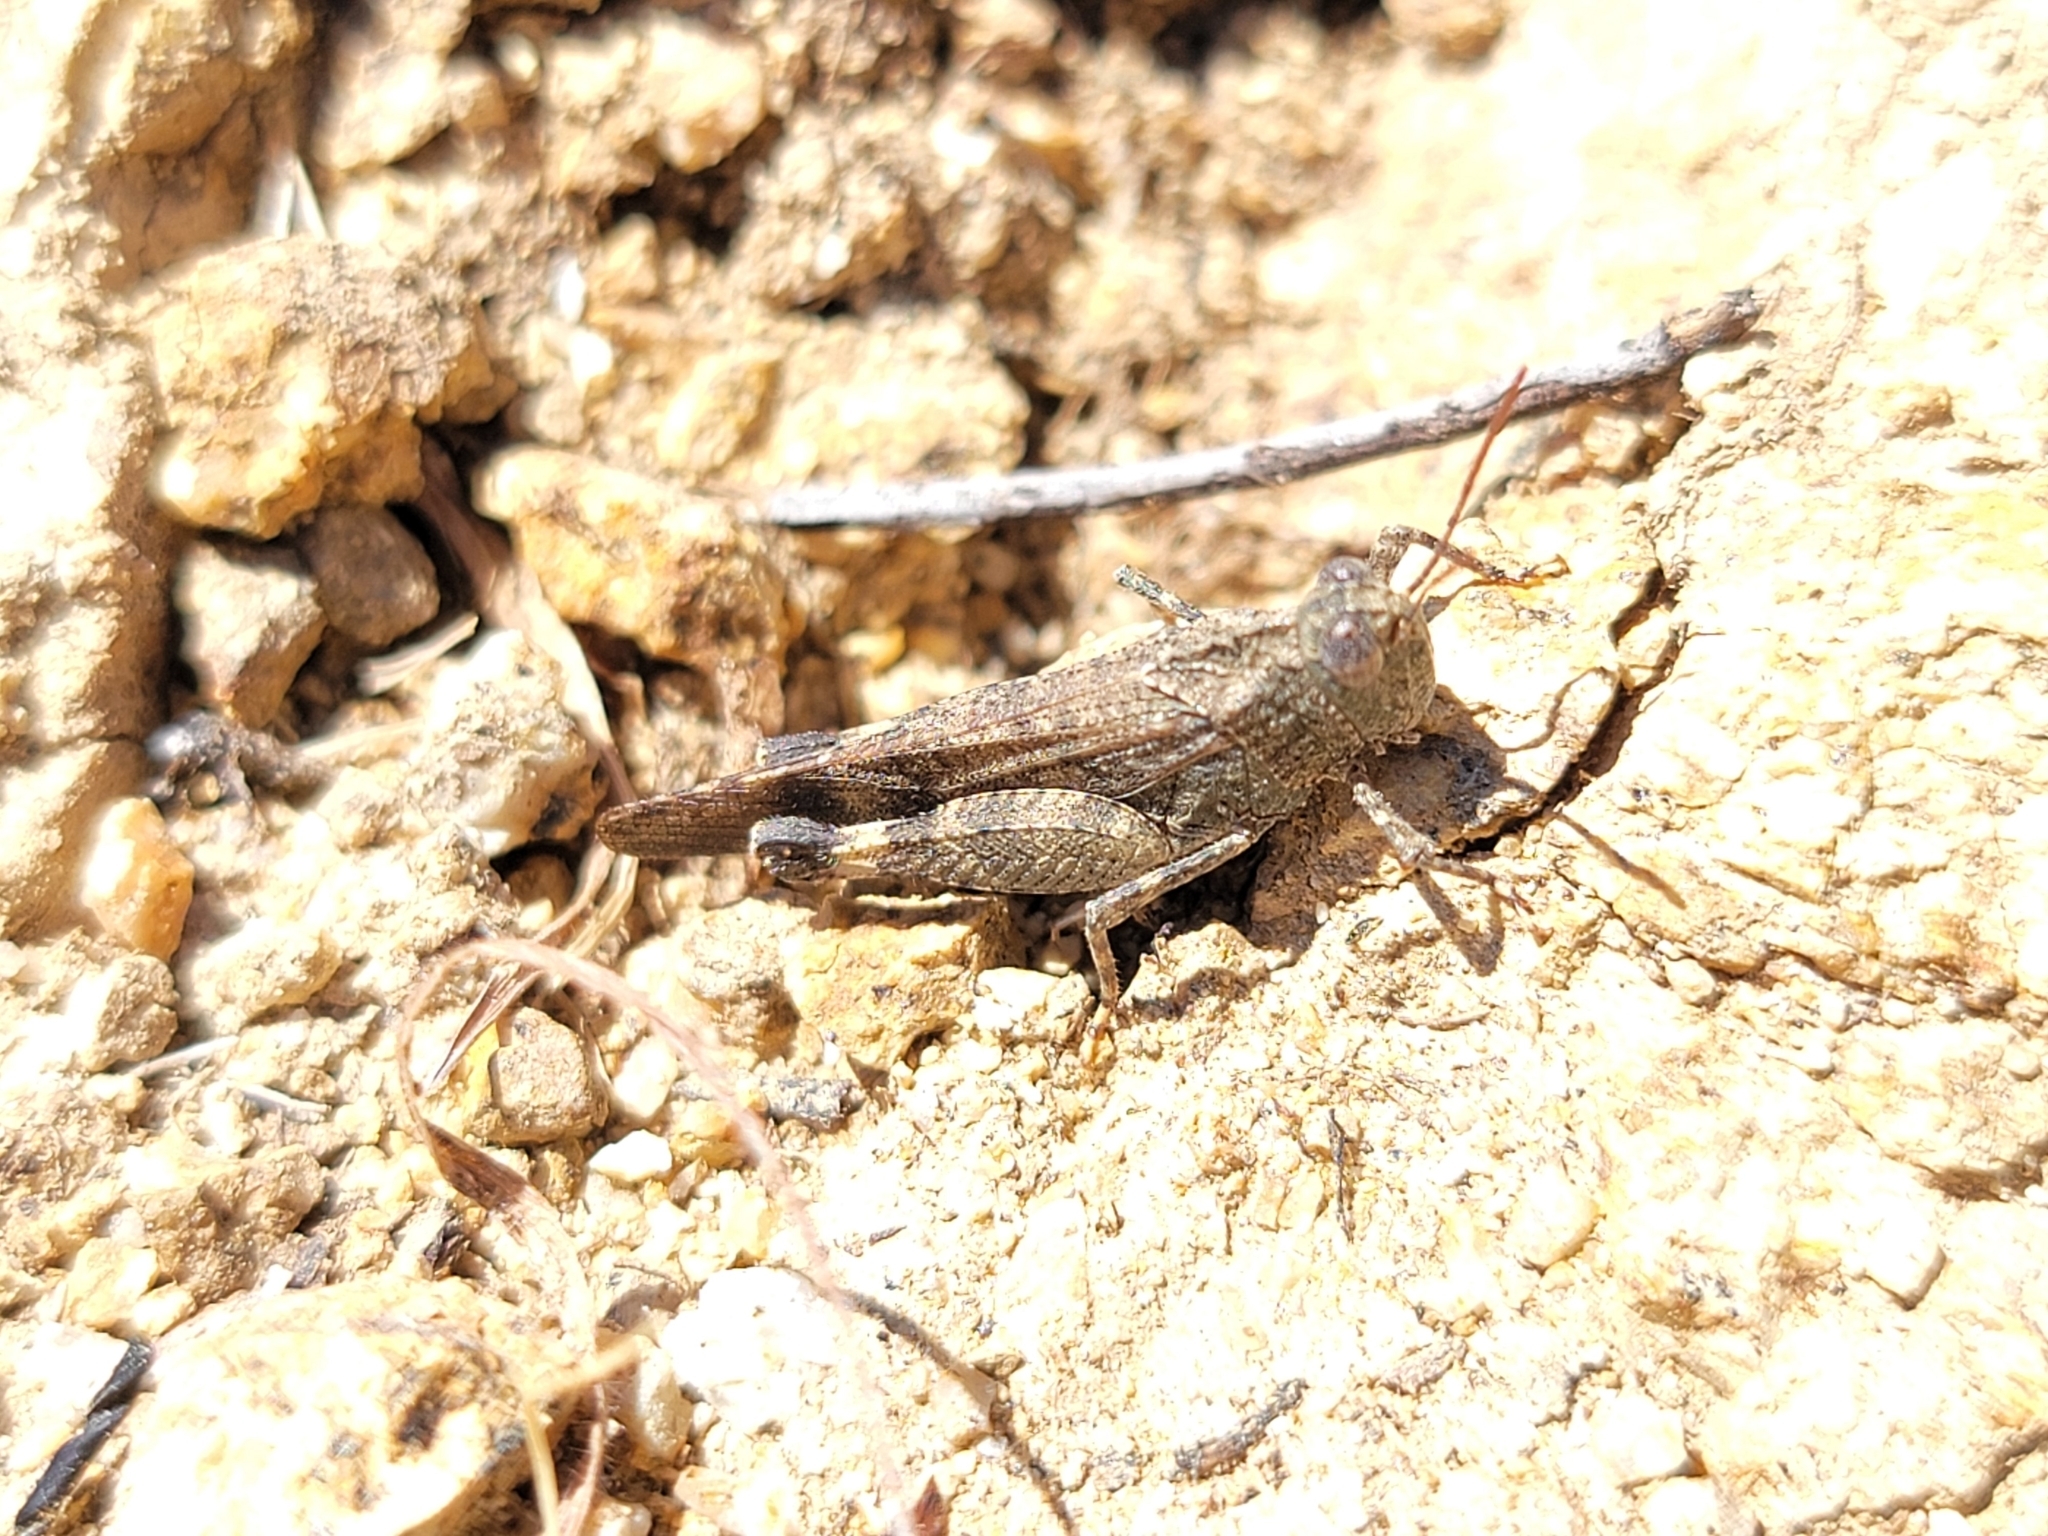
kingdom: Animalia
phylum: Arthropoda
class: Insecta
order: Orthoptera
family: Acrididae
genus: Lactista
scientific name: Lactista gibbosus
